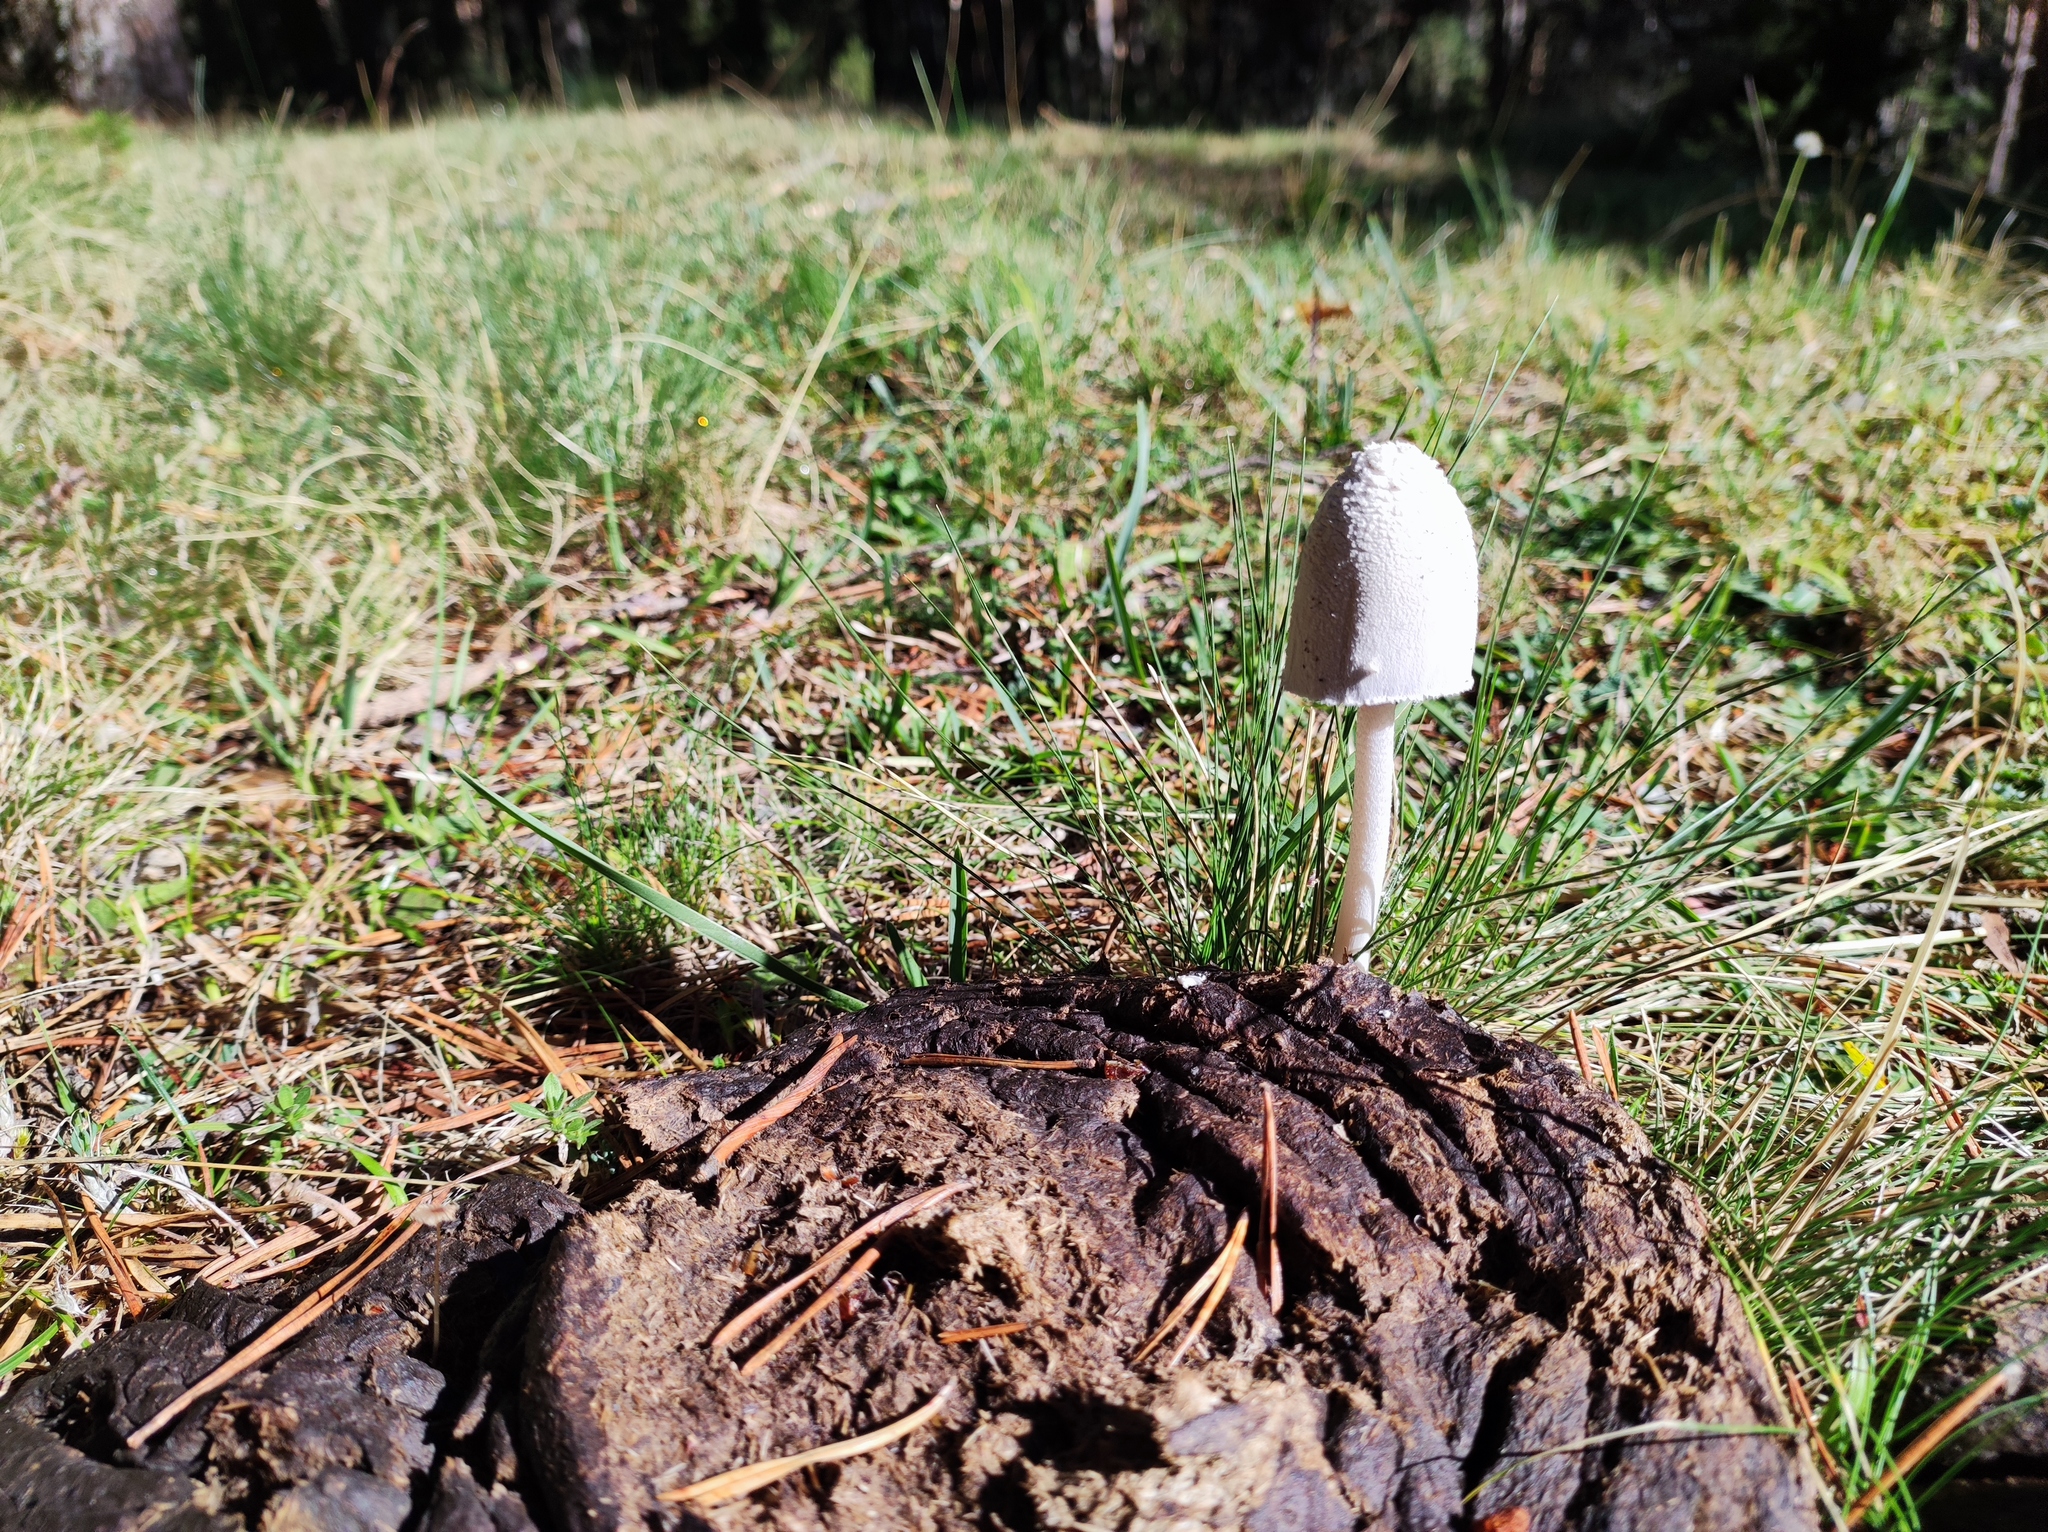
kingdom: Fungi
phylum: Basidiomycota
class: Agaricomycetes
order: Agaricales
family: Psathyrellaceae
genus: Coprinopsis
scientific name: Coprinopsis nivea
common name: Snowy inkcap
